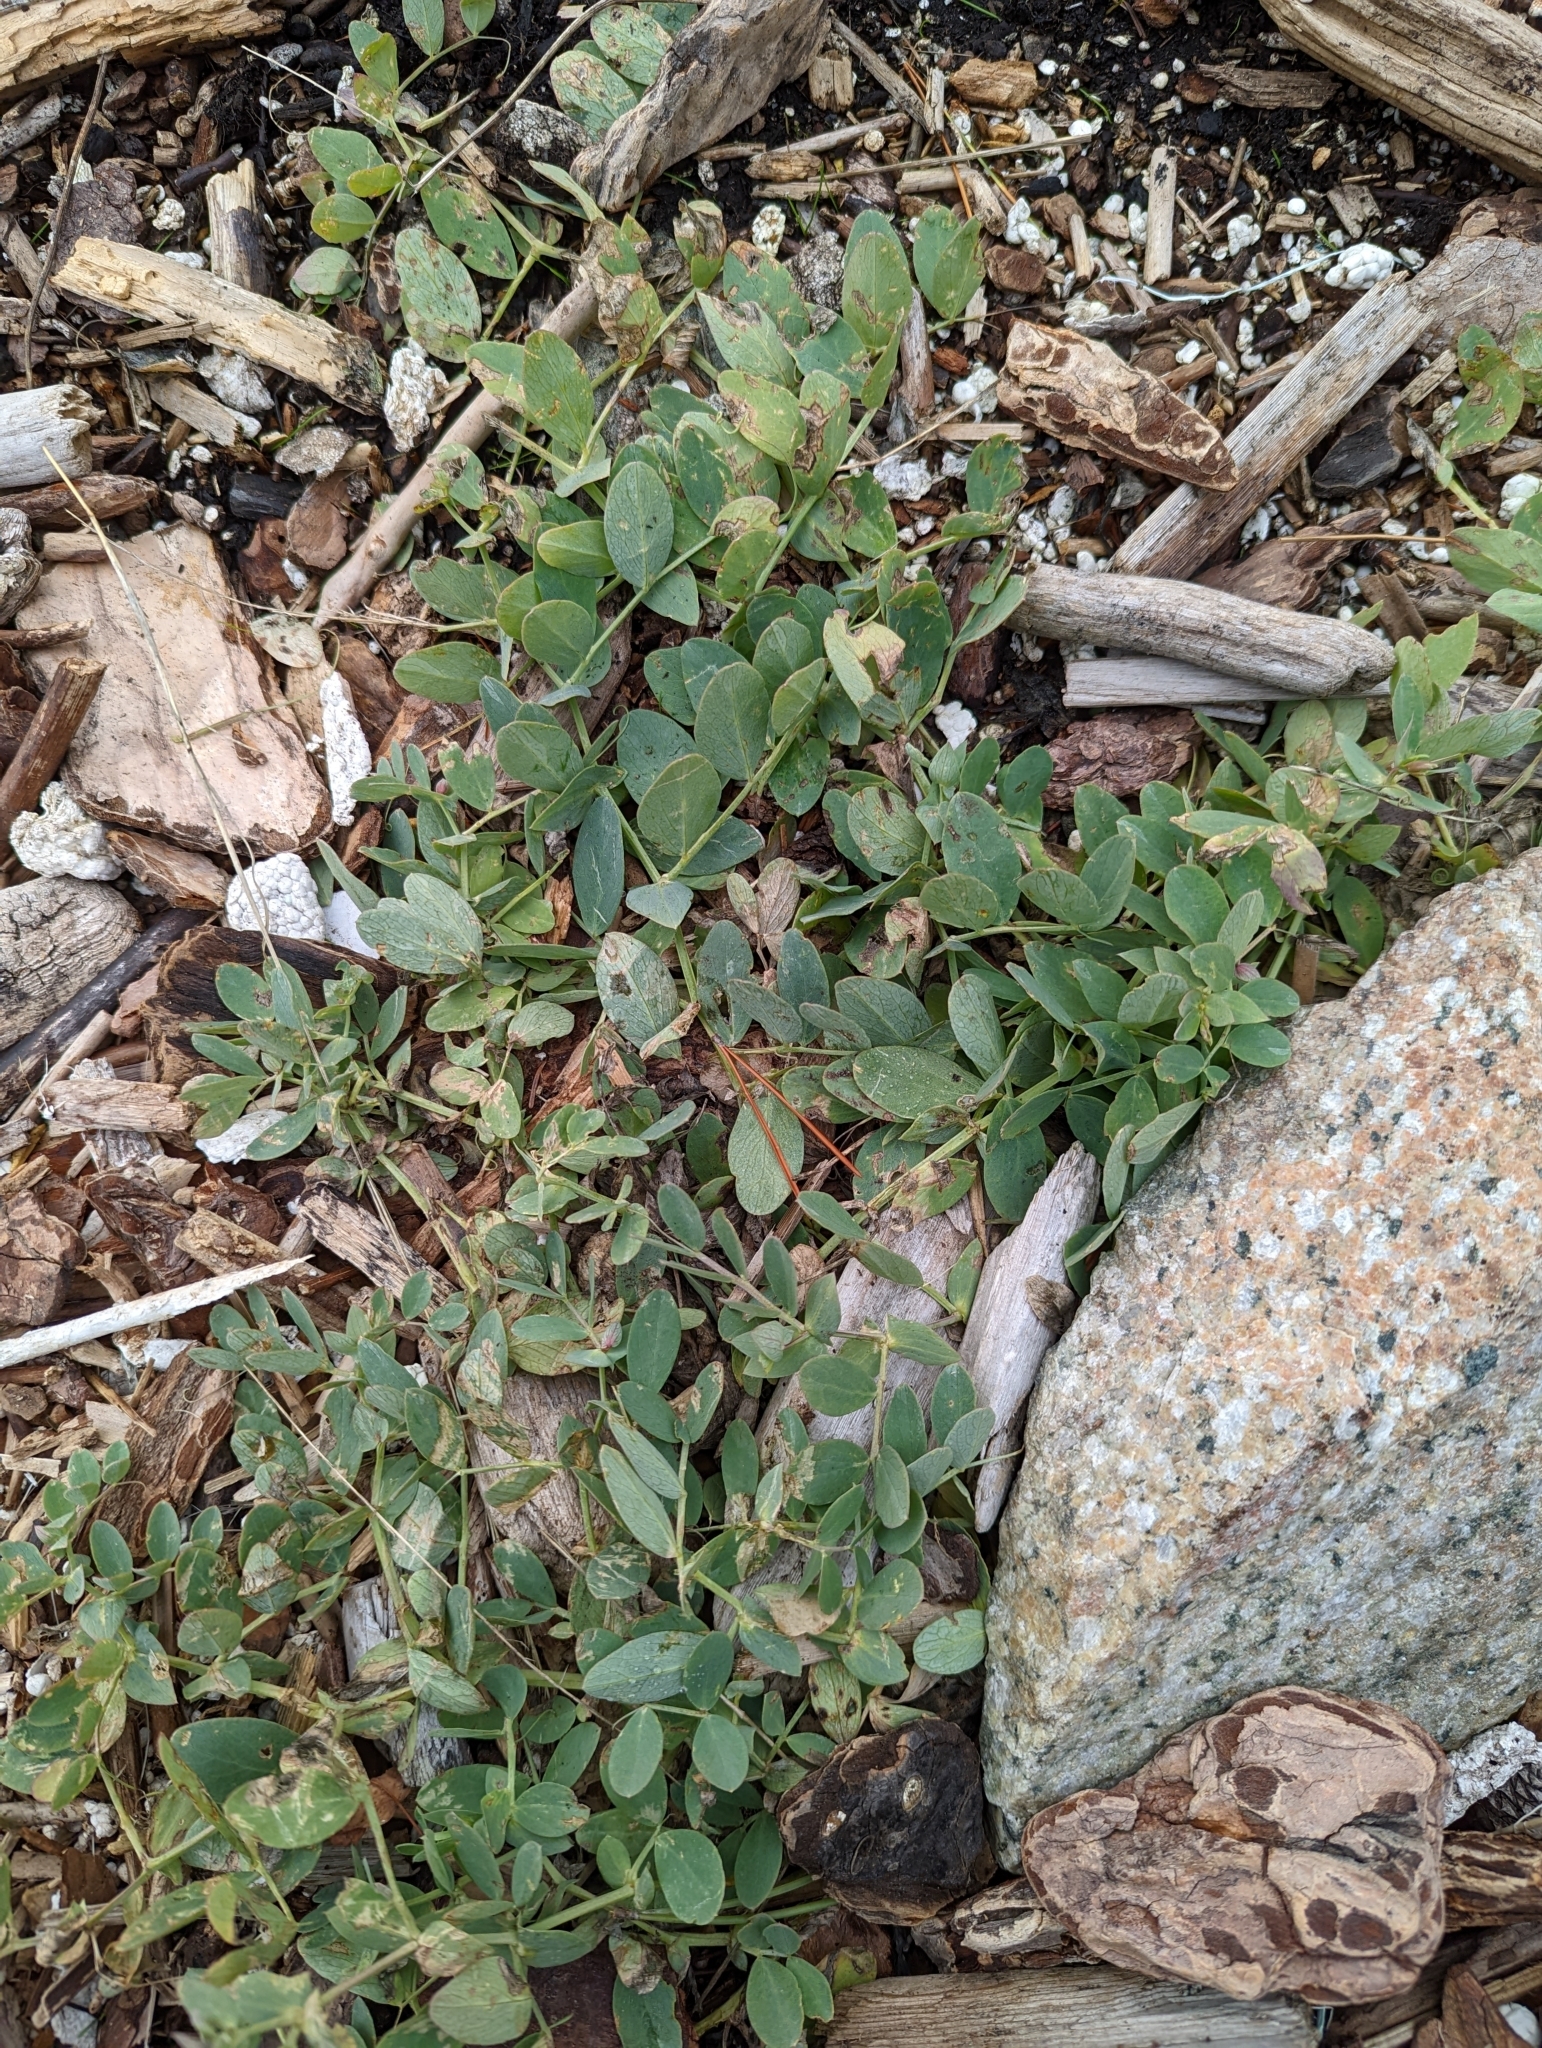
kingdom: Plantae
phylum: Tracheophyta
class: Magnoliopsida
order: Fabales
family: Fabaceae
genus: Lathyrus
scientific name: Lathyrus japonicus
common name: Sea pea
